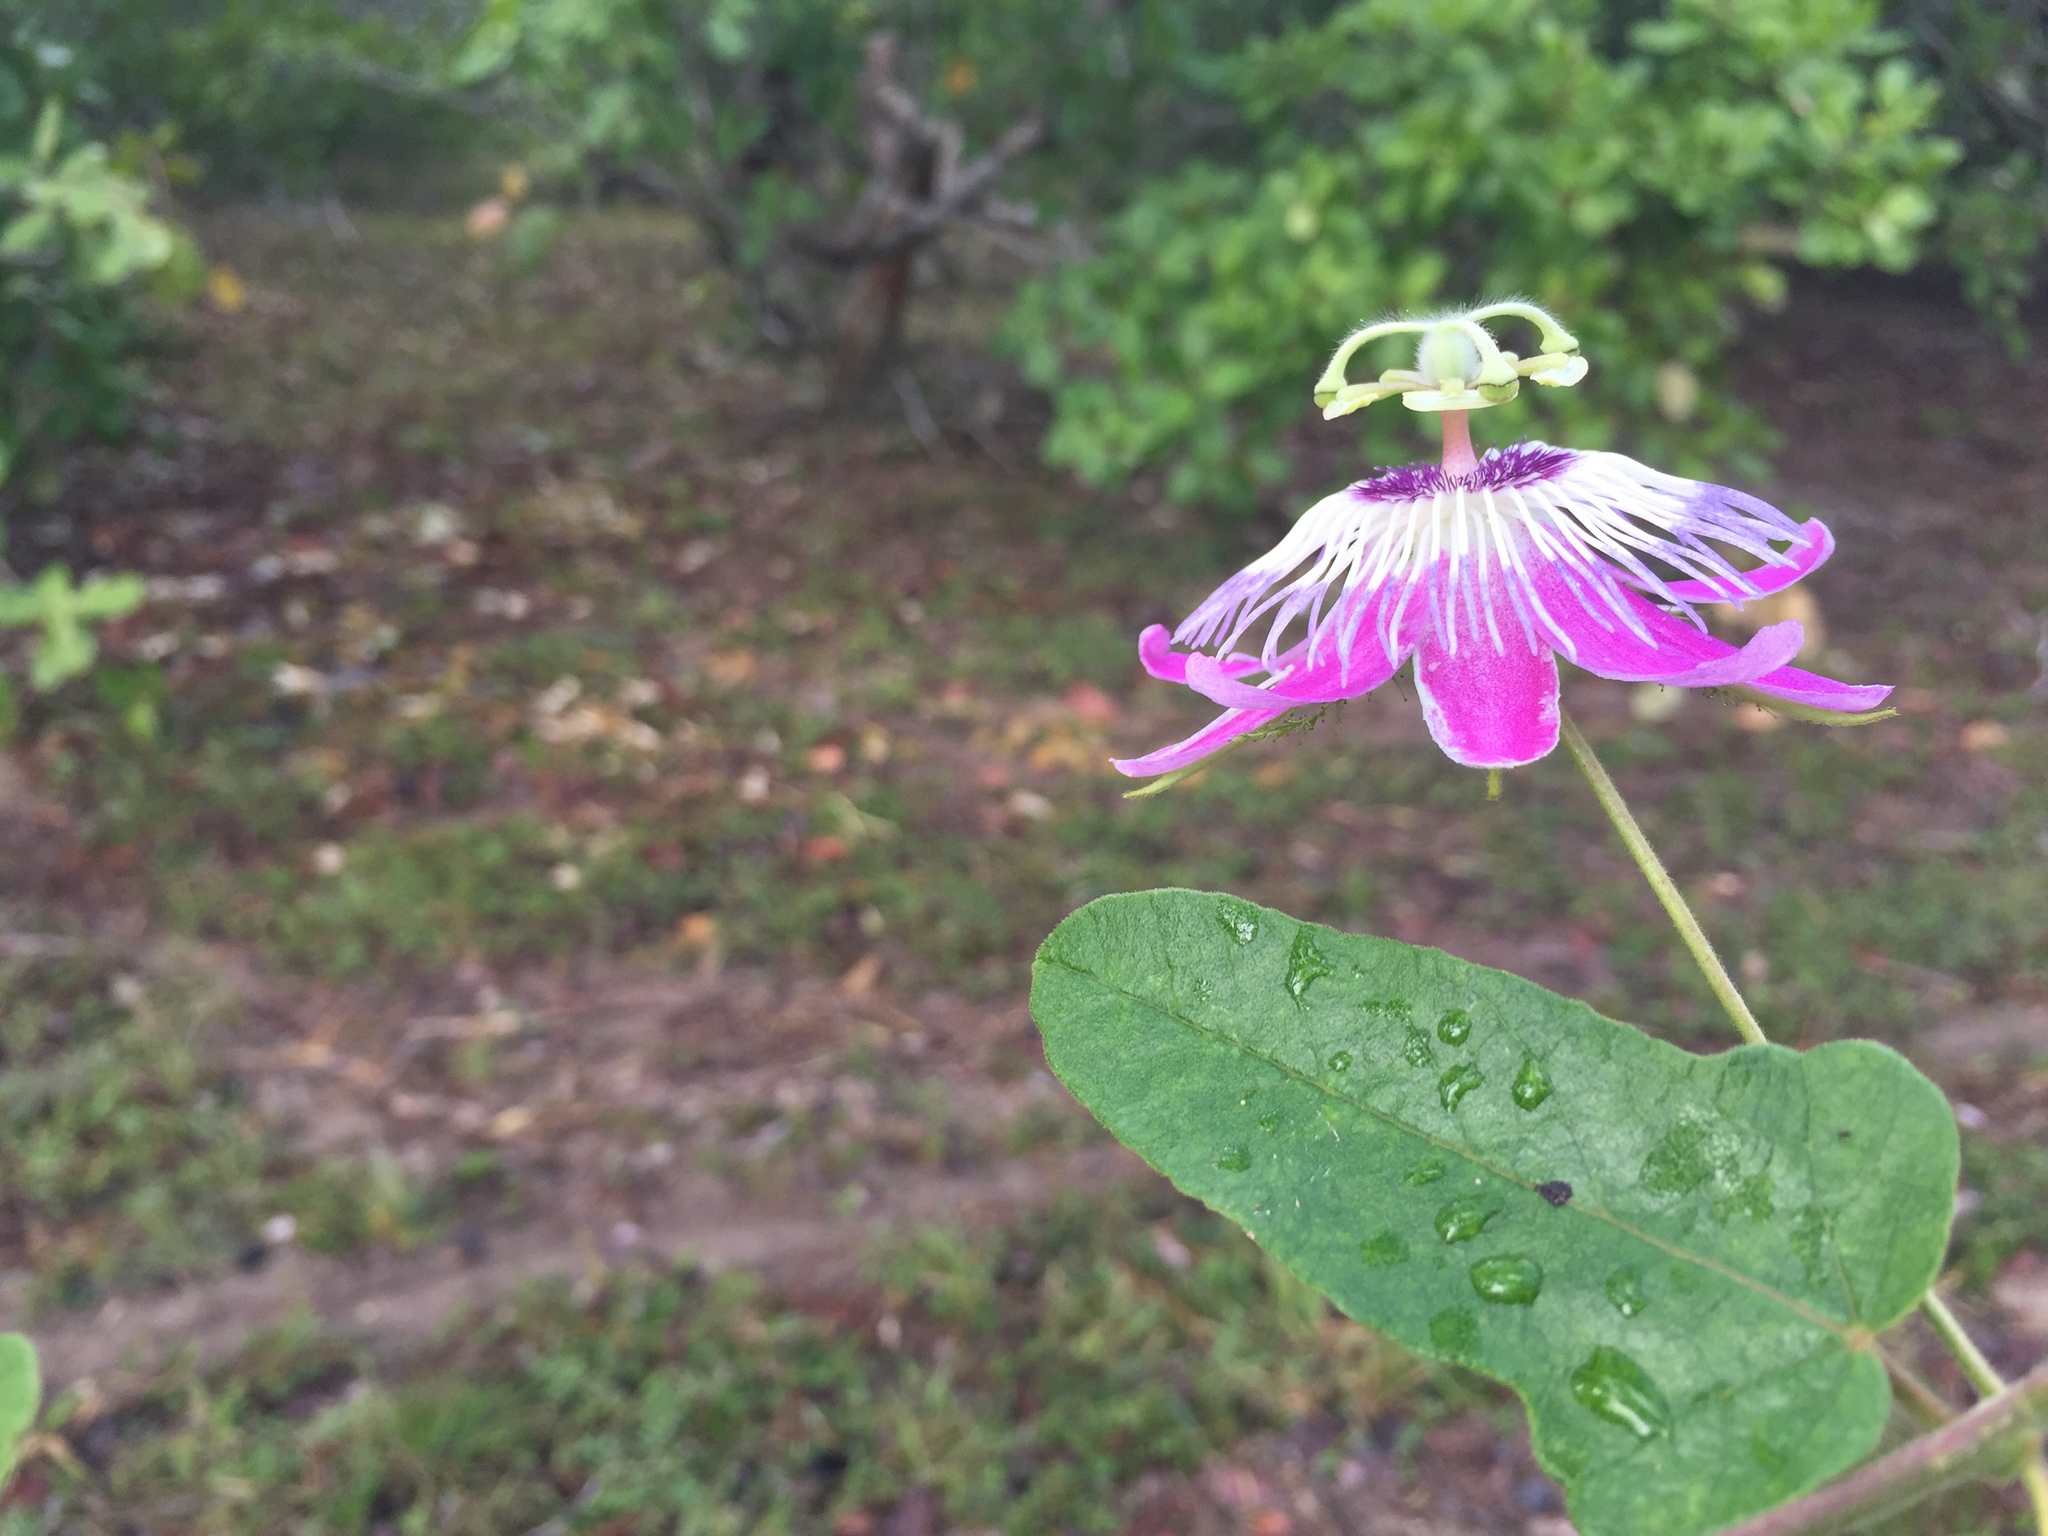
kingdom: Plantae
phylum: Tracheophyta
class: Magnoliopsida
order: Malpighiales
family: Passifloraceae
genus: Passiflora
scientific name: Passiflora urbaniana
